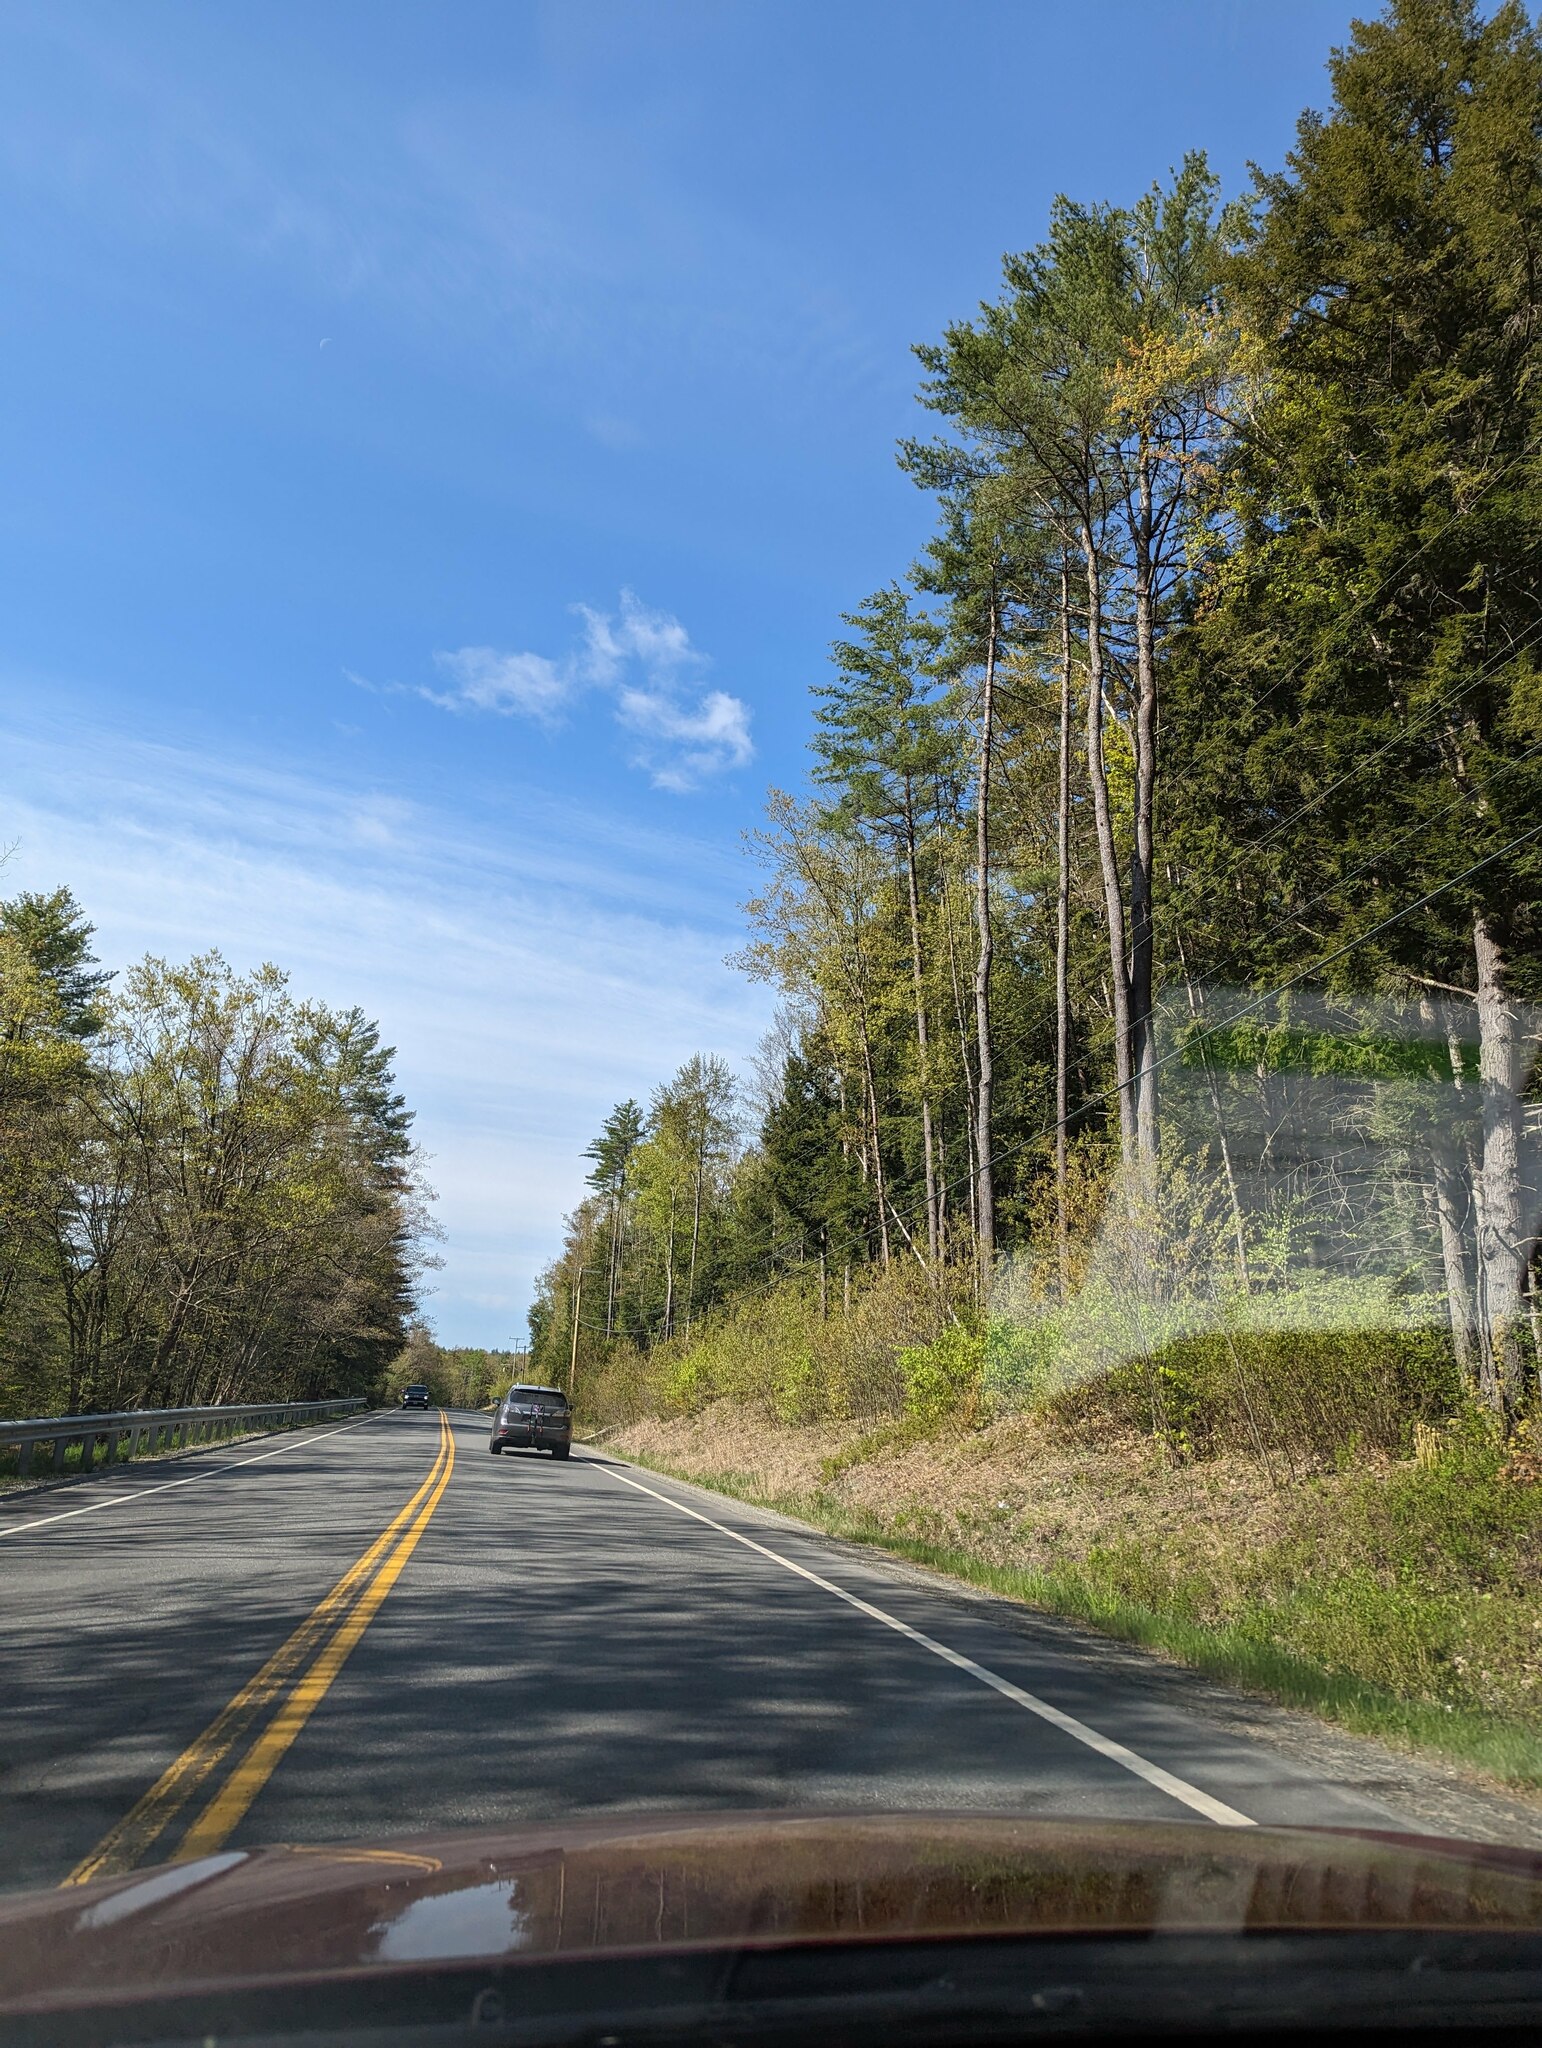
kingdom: Plantae
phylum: Tracheophyta
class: Pinopsida
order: Pinales
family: Pinaceae
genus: Pinus
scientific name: Pinus strobus
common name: Weymouth pine
